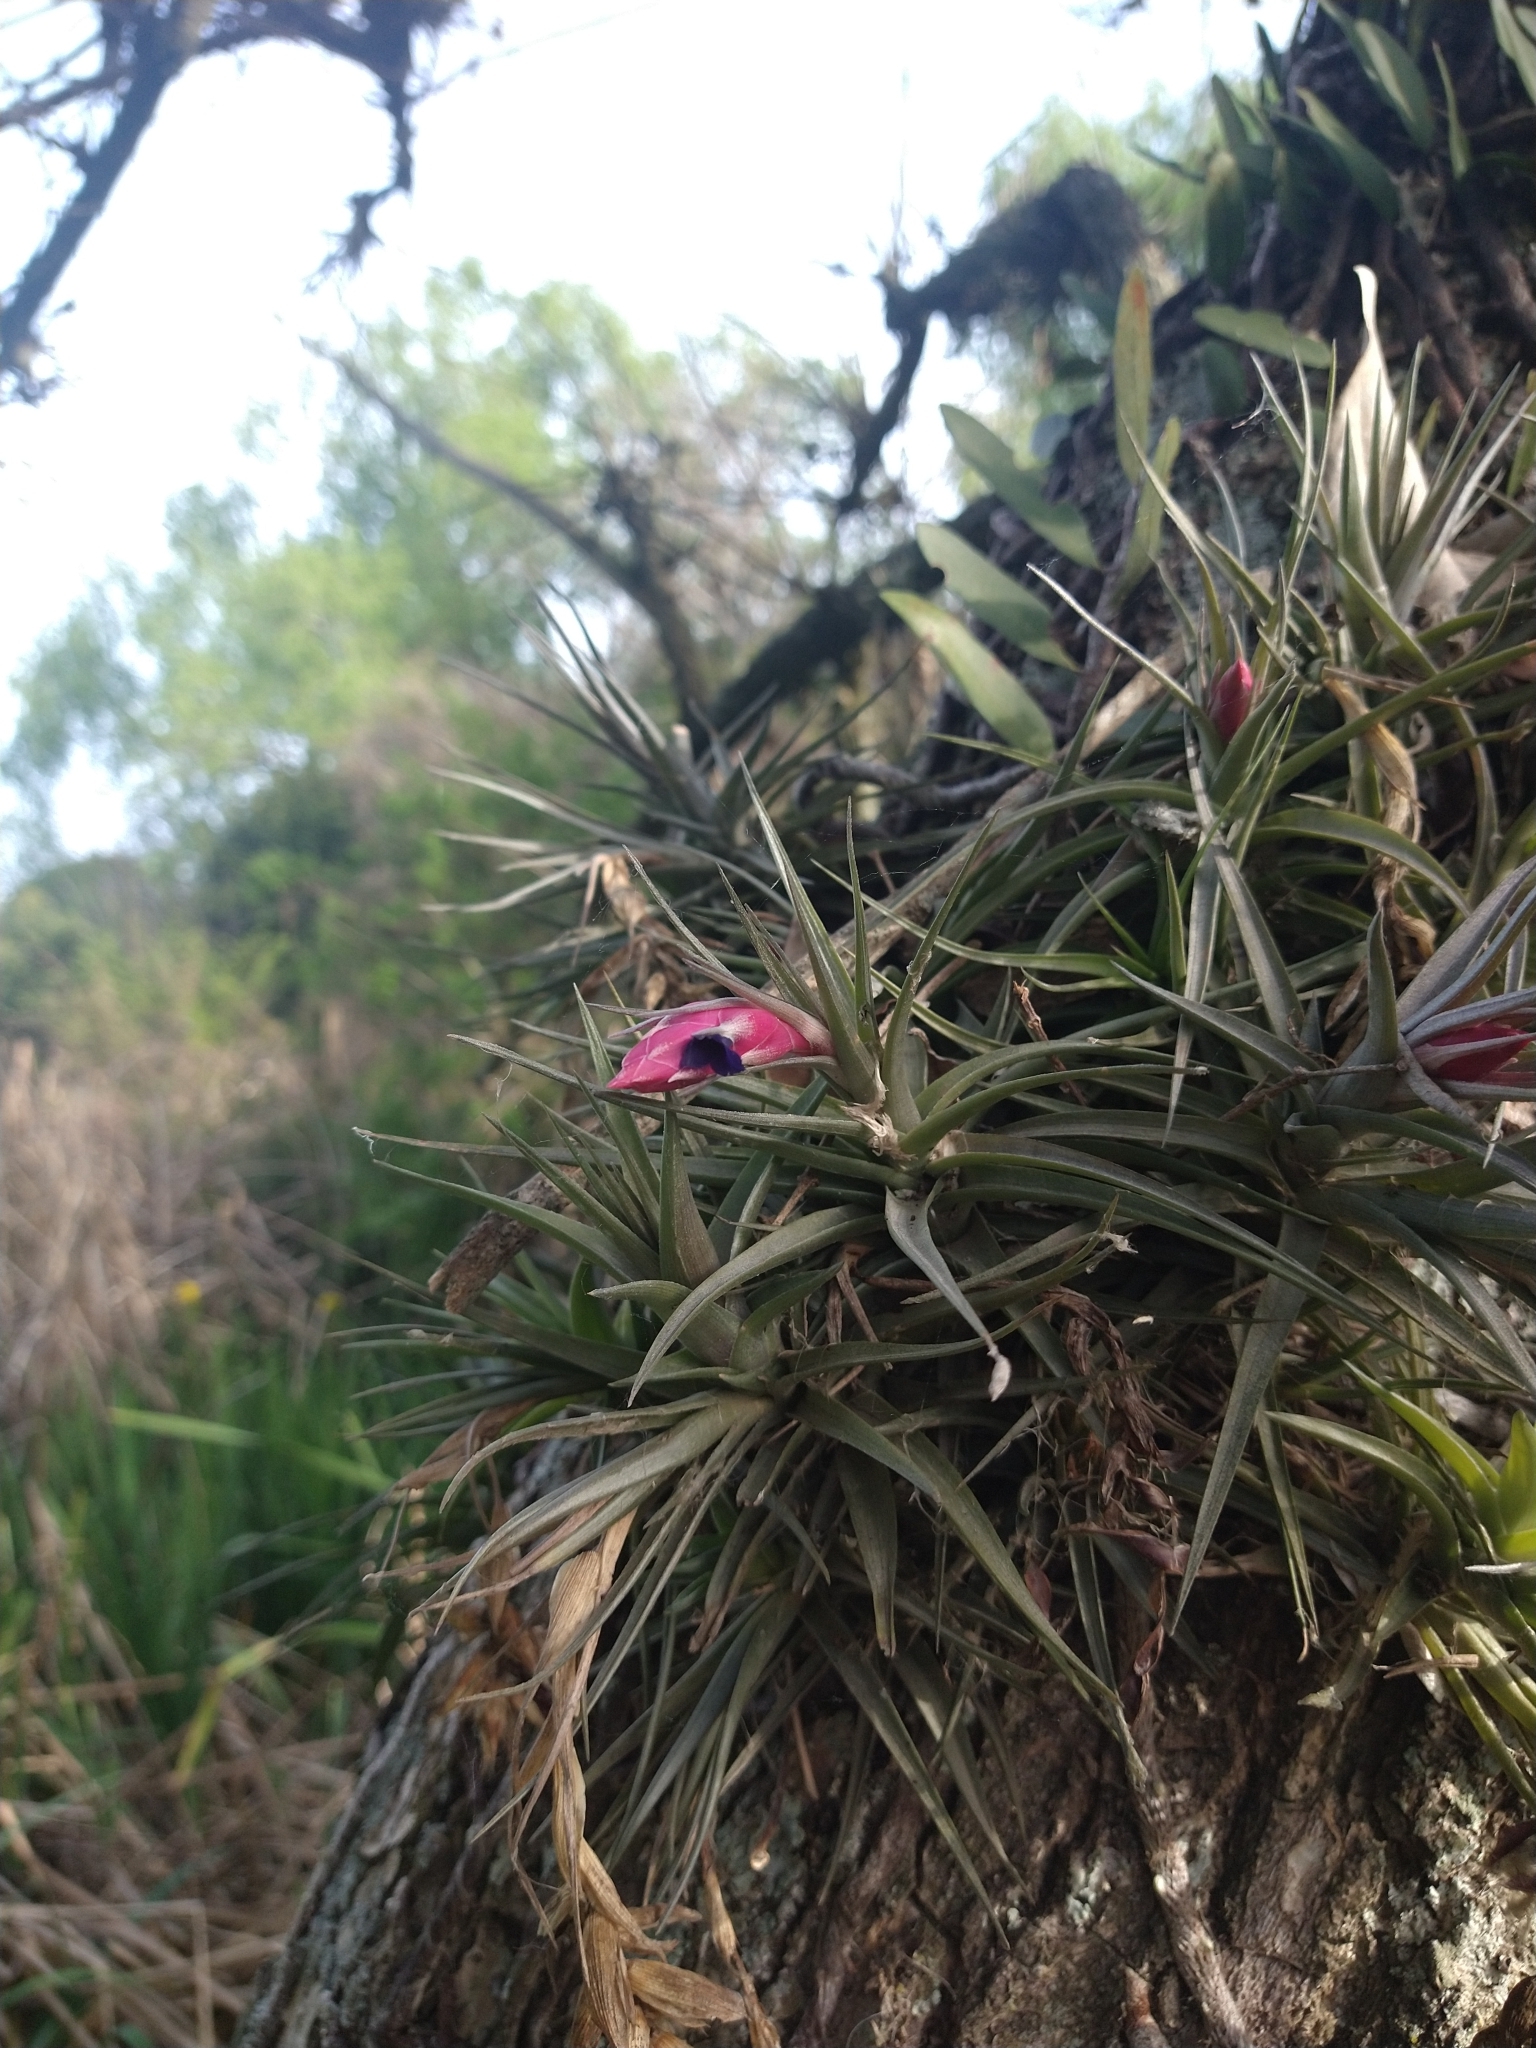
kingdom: Plantae
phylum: Tracheophyta
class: Liliopsida
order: Poales
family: Bromeliaceae
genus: Tillandsia
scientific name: Tillandsia aeranthos
